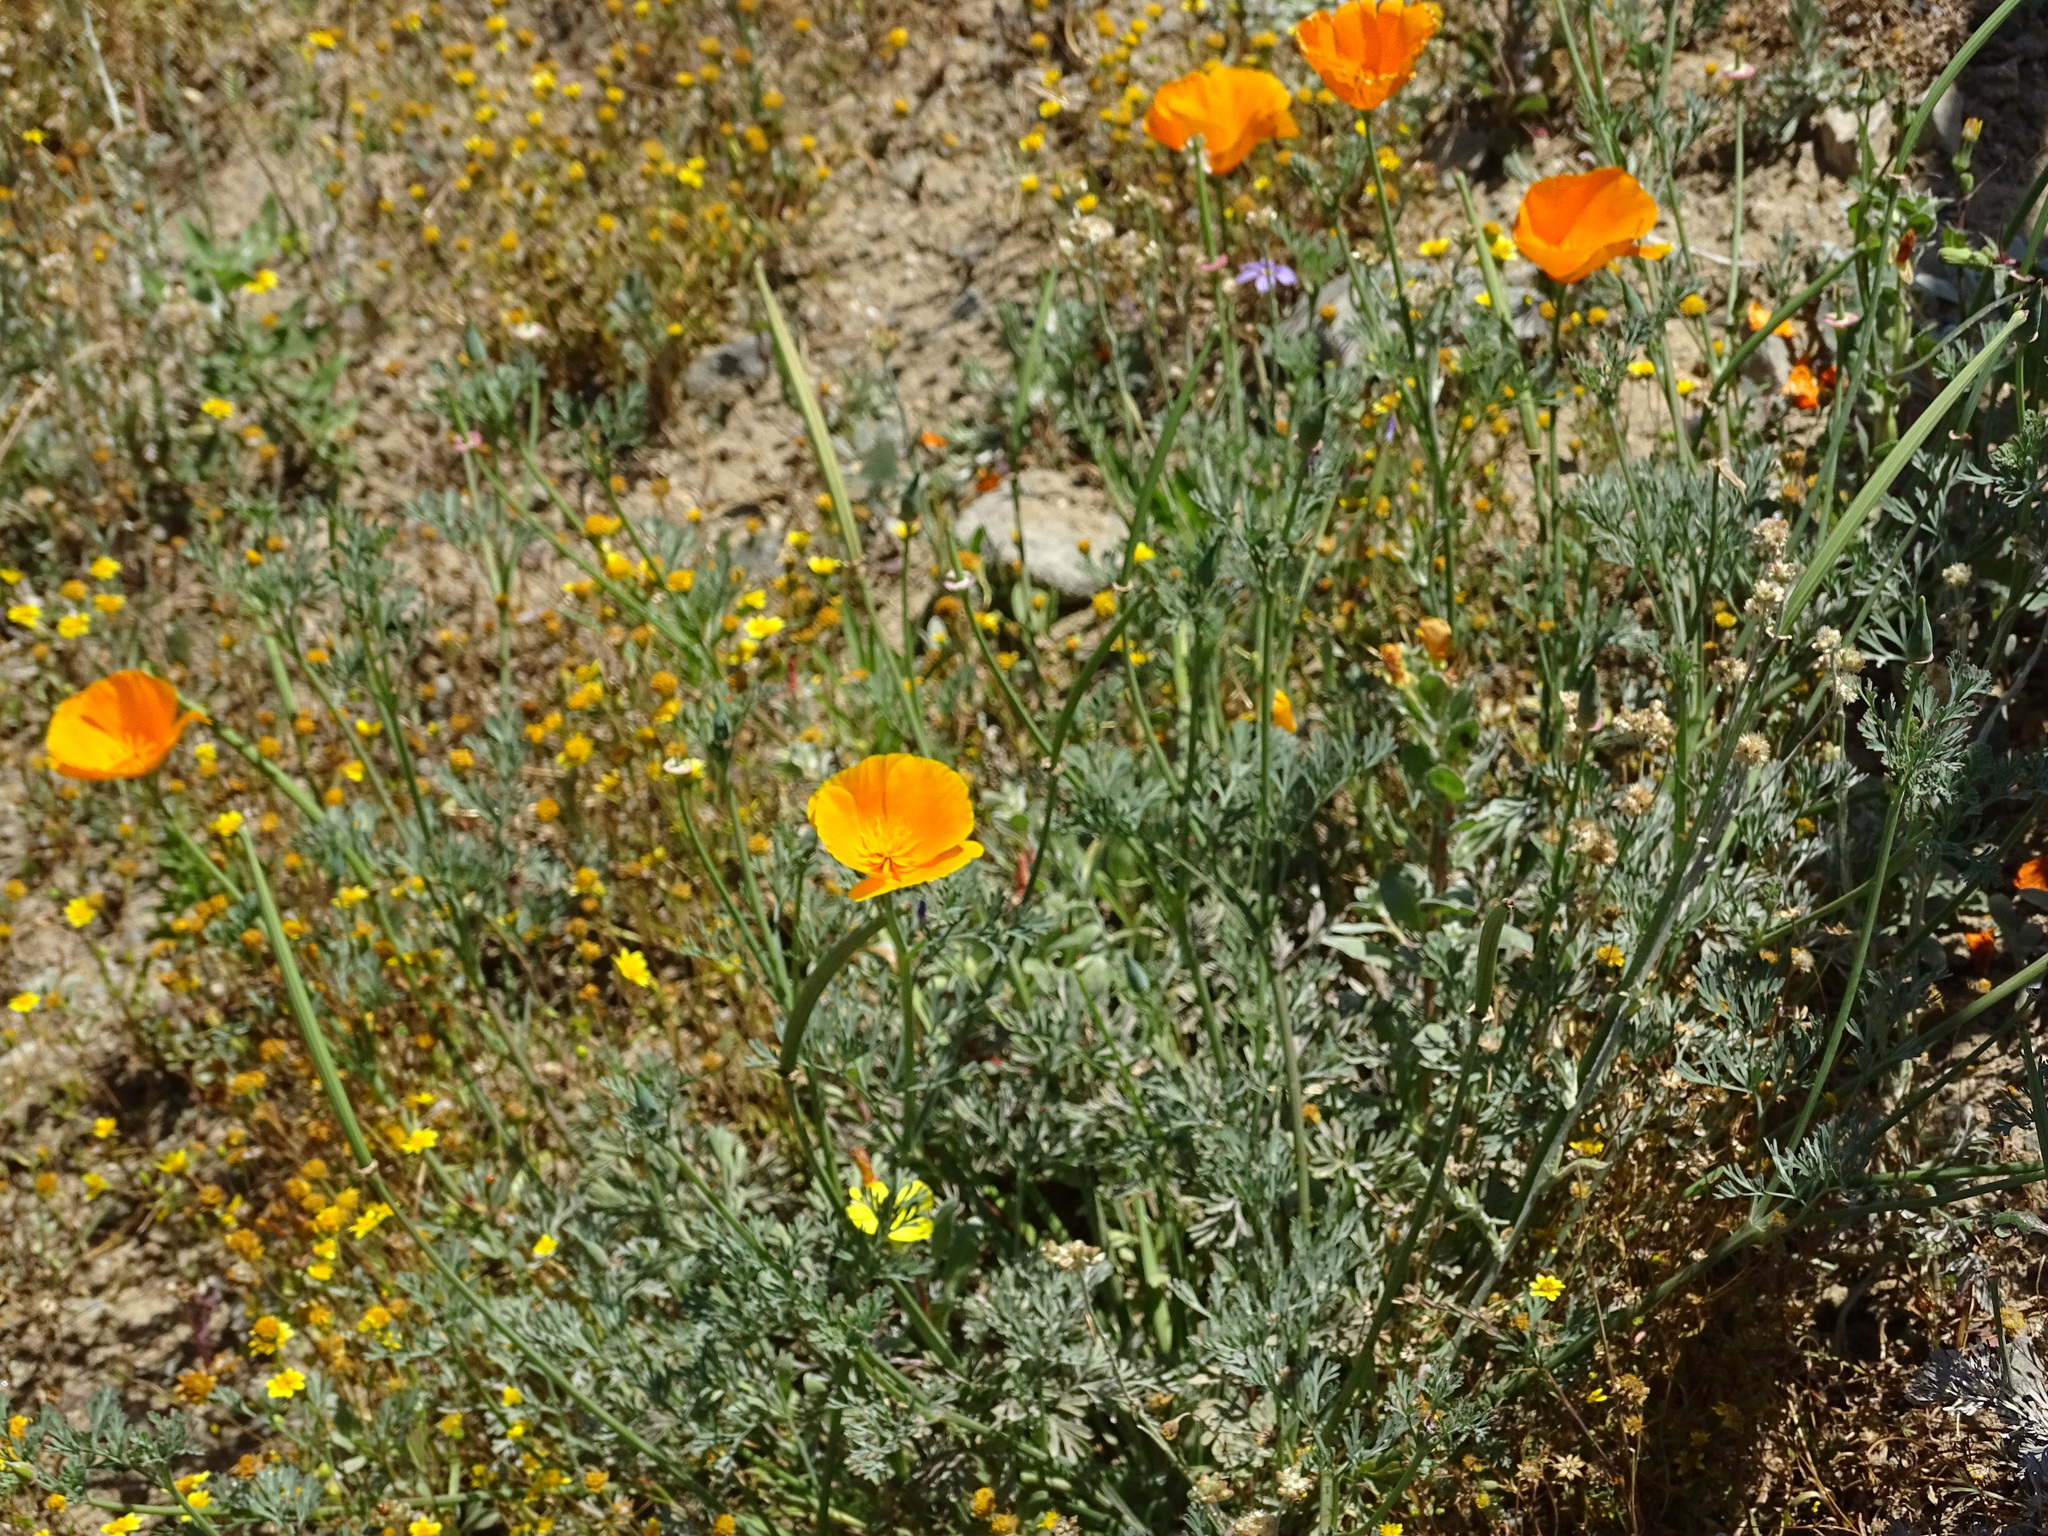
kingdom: Plantae
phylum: Tracheophyta
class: Magnoliopsida
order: Ranunculales
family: Papaveraceae
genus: Eschscholzia
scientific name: Eschscholzia californica
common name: California poppy
